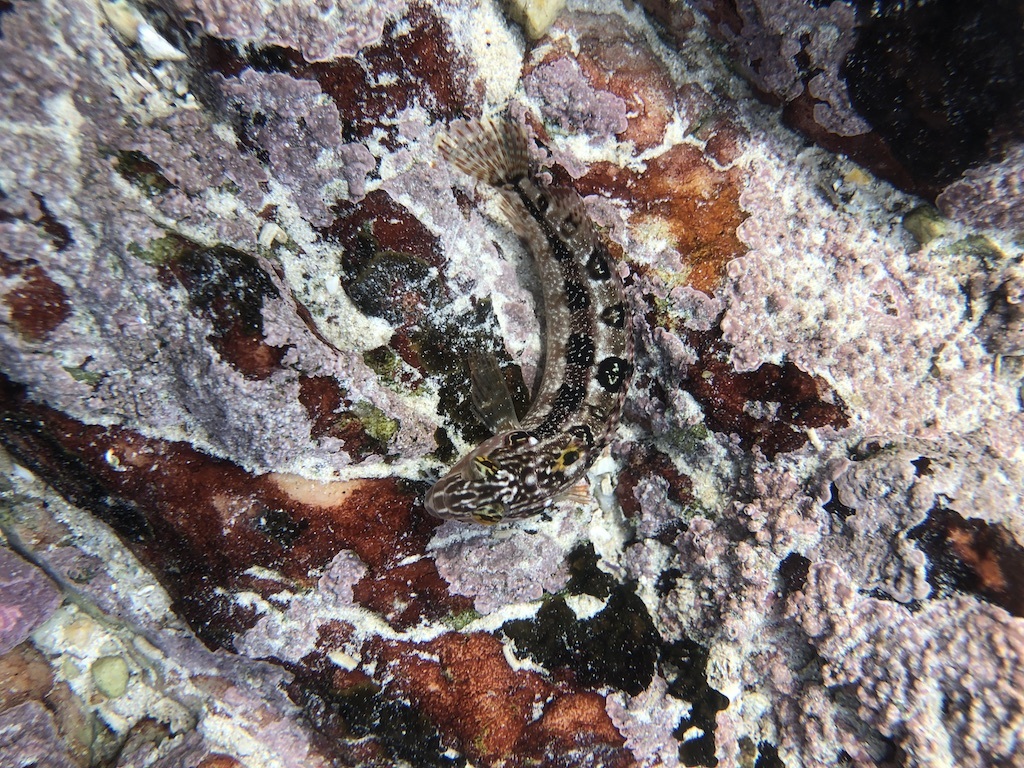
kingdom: Animalia
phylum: Chordata
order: Perciformes
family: Clinidae
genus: Clinus
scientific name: Clinus superciliosus
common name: Super klipfish
